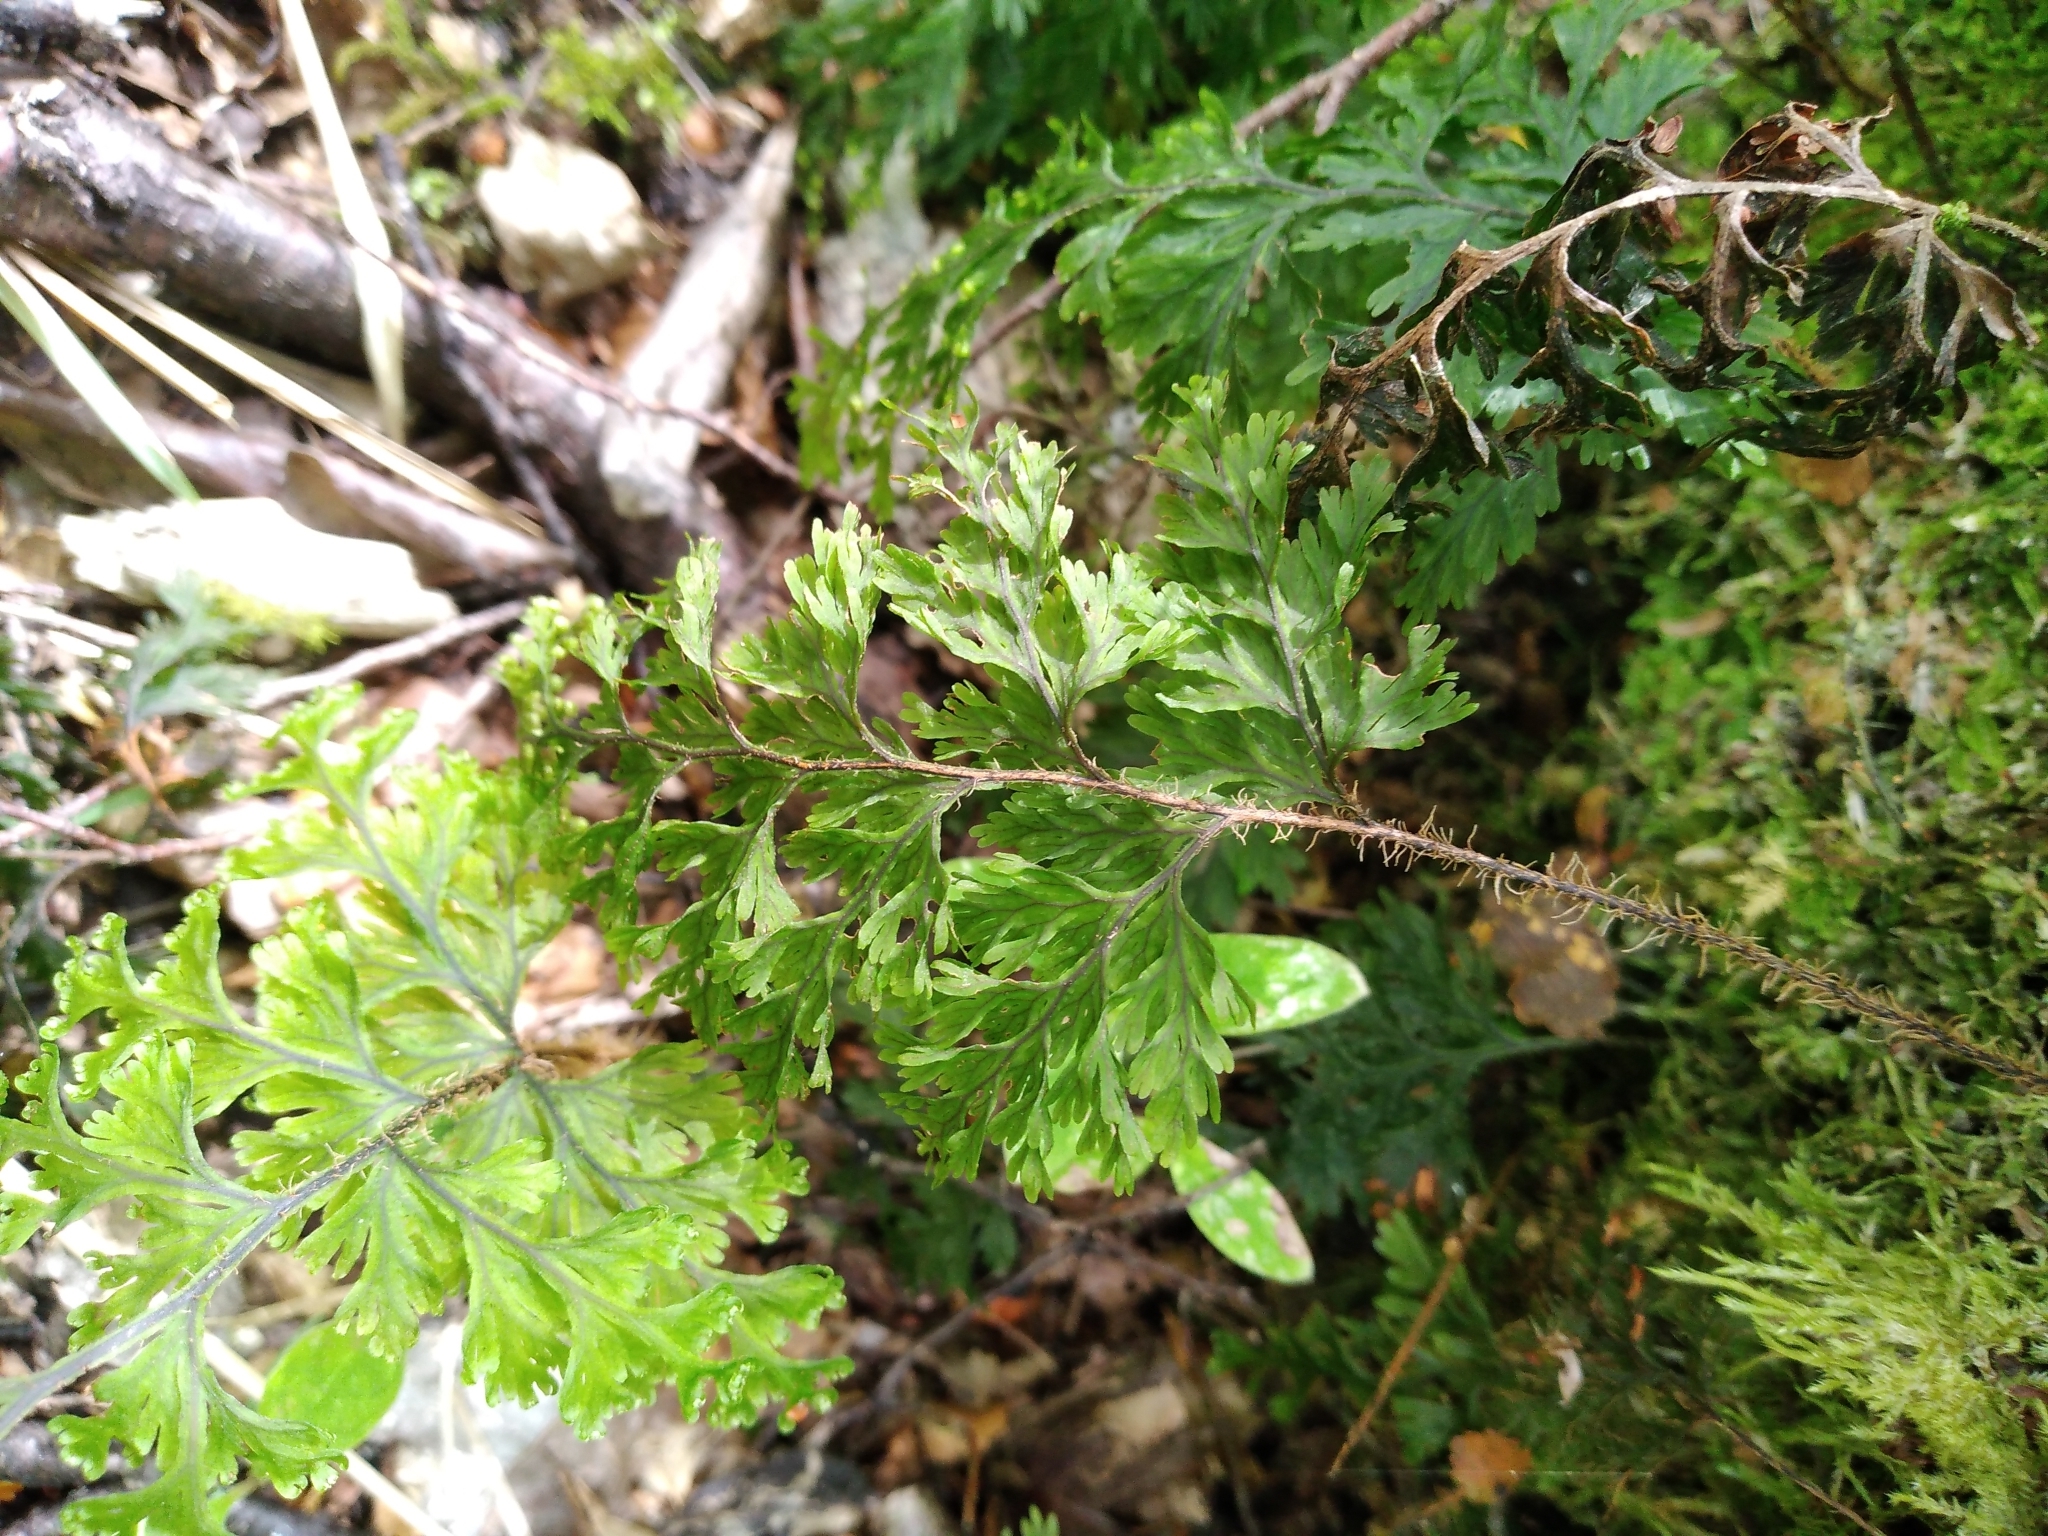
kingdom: Plantae
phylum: Tracheophyta
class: Polypodiopsida
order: Hymenophyllales
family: Hymenophyllaceae
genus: Hymenophyllum
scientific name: Hymenophyllum scabrum
